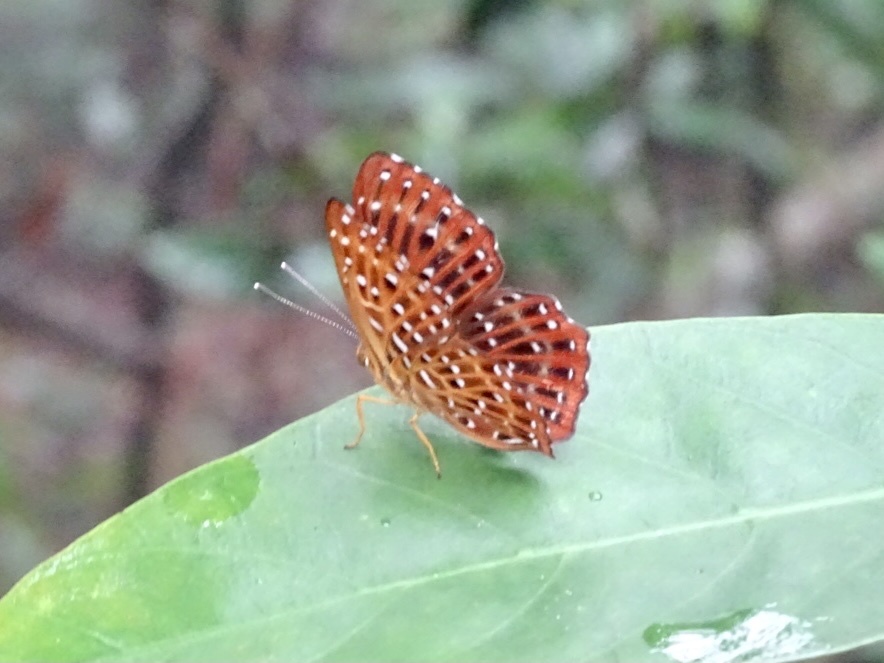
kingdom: Animalia
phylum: Arthropoda
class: Insecta
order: Lepidoptera
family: Riodinidae
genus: Zemeros
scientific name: Zemeros flegyas
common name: Punchinello
